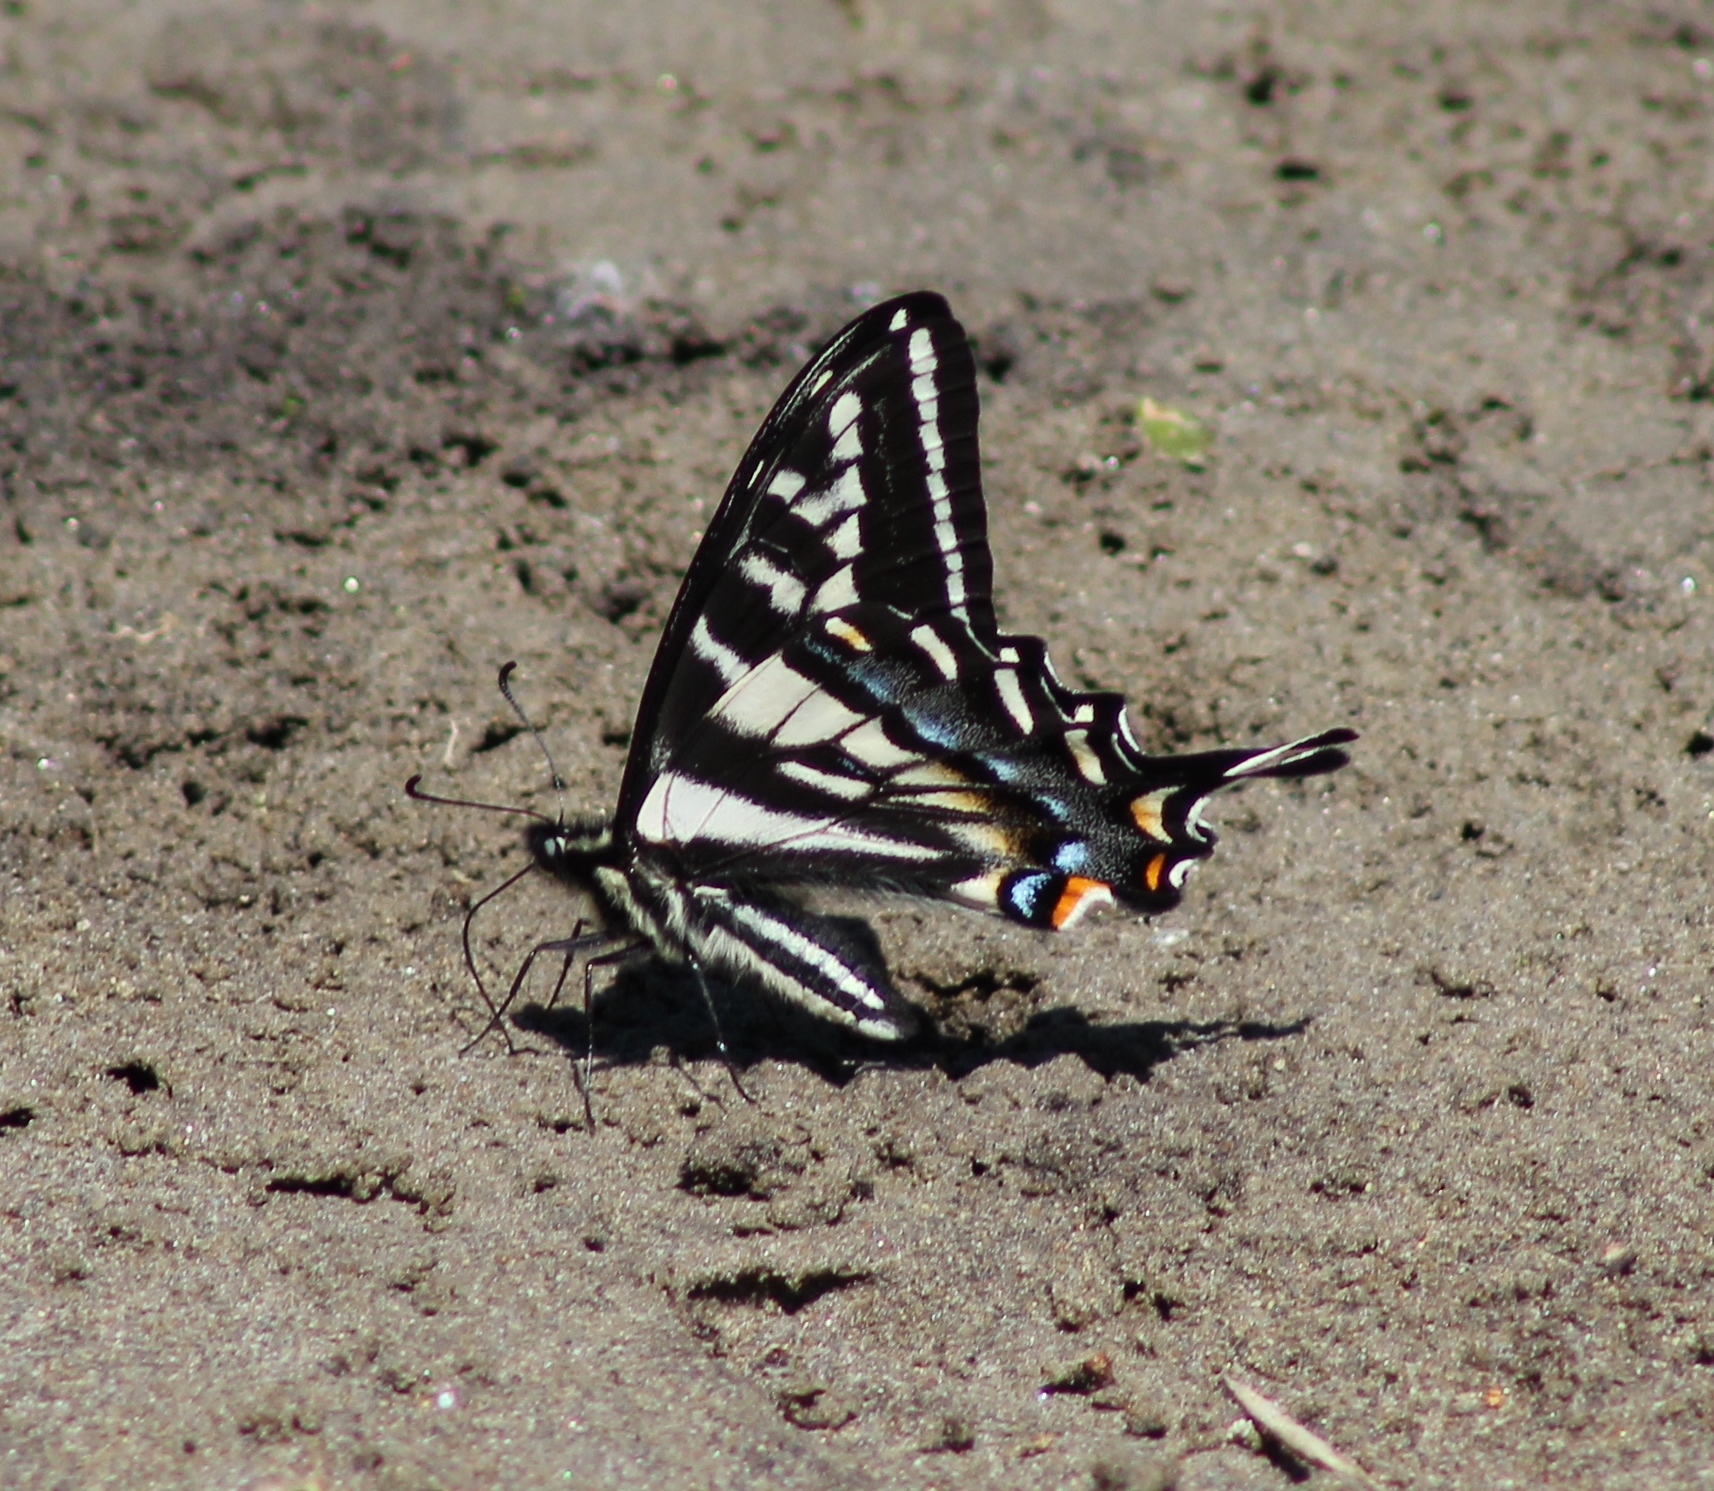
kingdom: Animalia
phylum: Arthropoda
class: Insecta
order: Lepidoptera
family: Papilionidae
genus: Papilio
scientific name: Papilio eurymedon
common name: Pale tiger swallowtail
